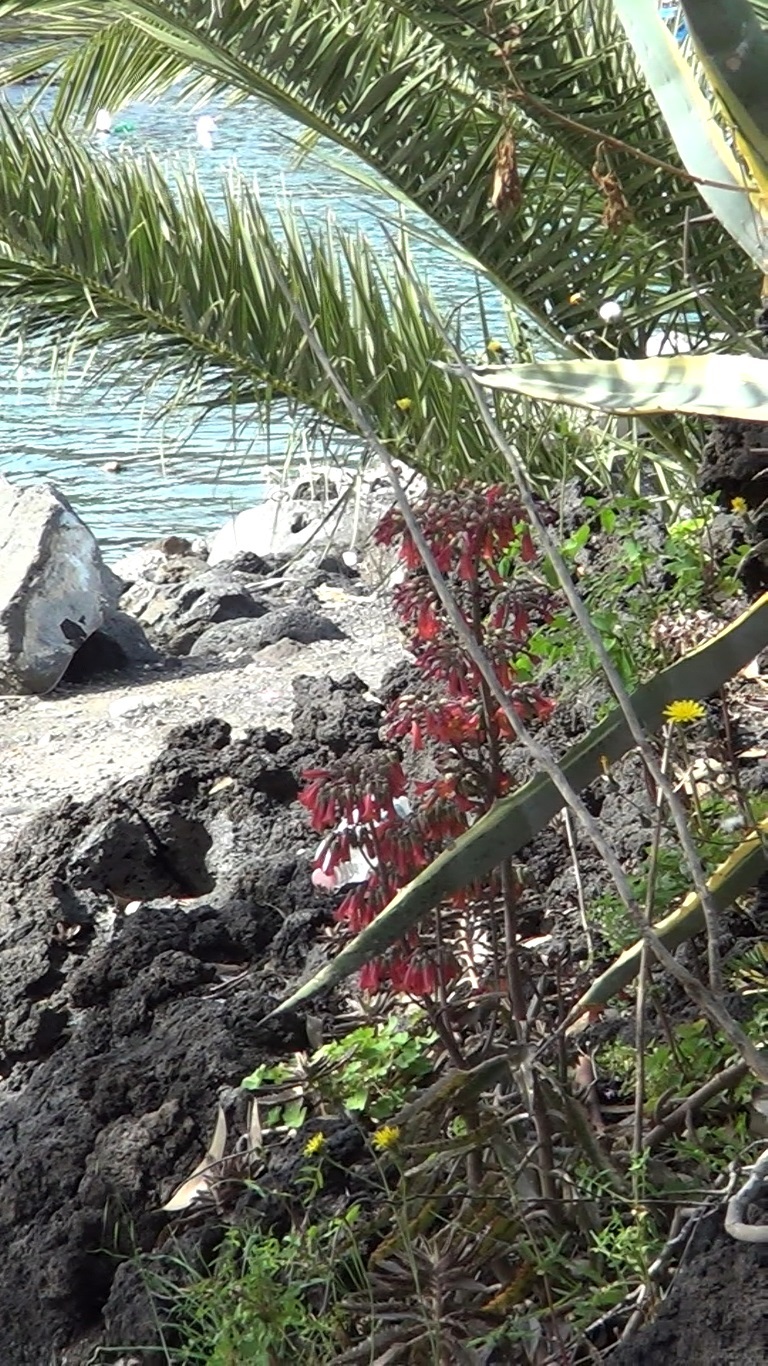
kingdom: Plantae
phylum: Tracheophyta
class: Magnoliopsida
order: Saxifragales
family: Crassulaceae
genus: Kalanchoe
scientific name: Kalanchoe houghtonii
